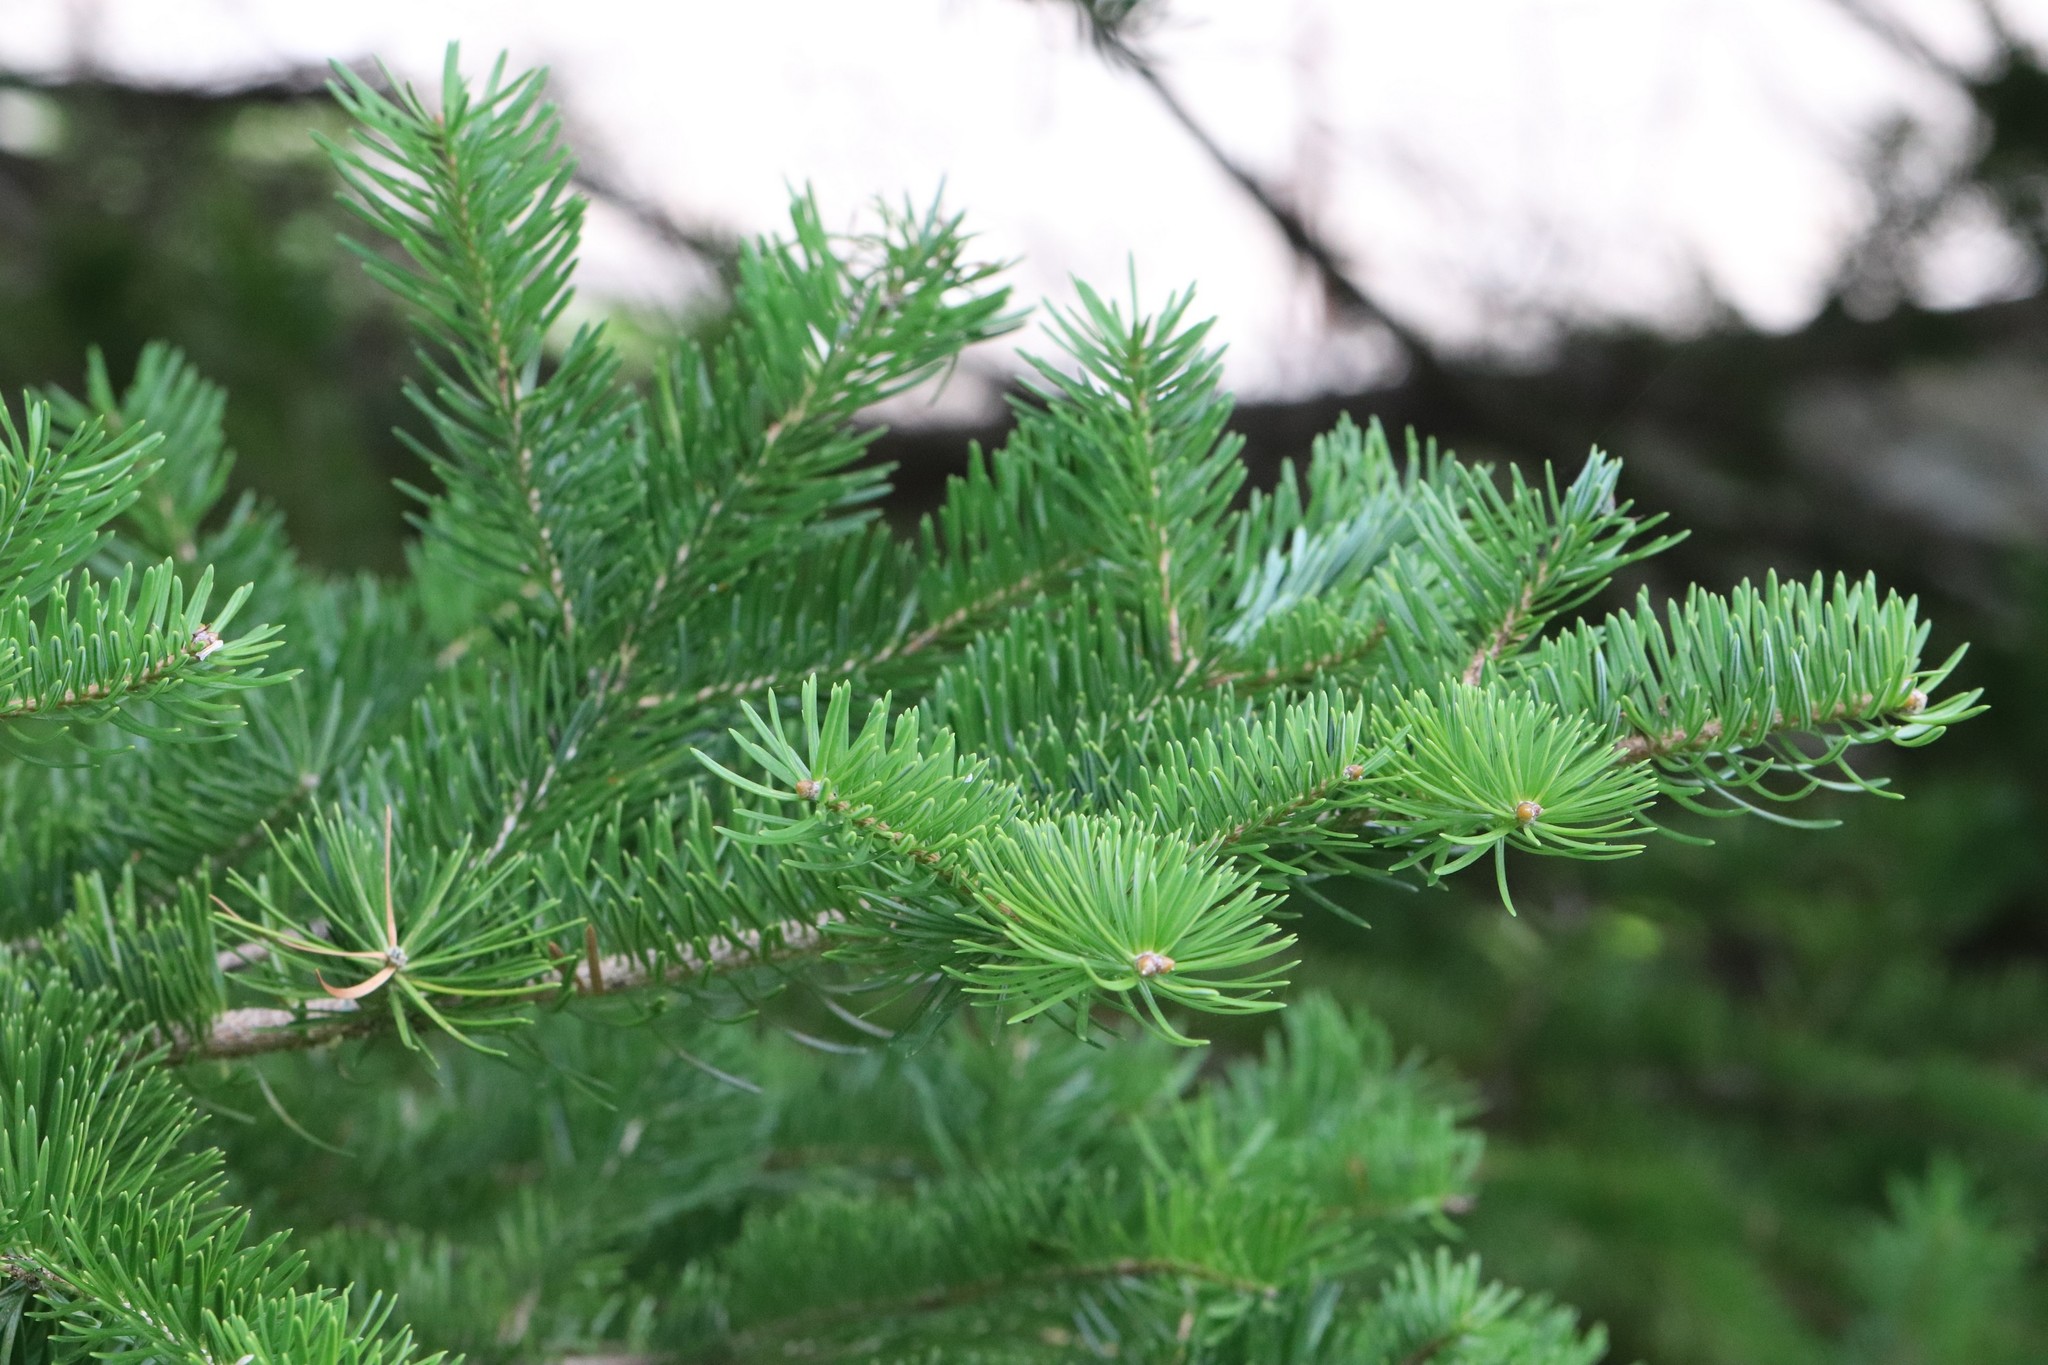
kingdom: Plantae
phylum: Tracheophyta
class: Pinopsida
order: Pinales
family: Pinaceae
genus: Abies
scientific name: Abies holophylla
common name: Manchurian fir
